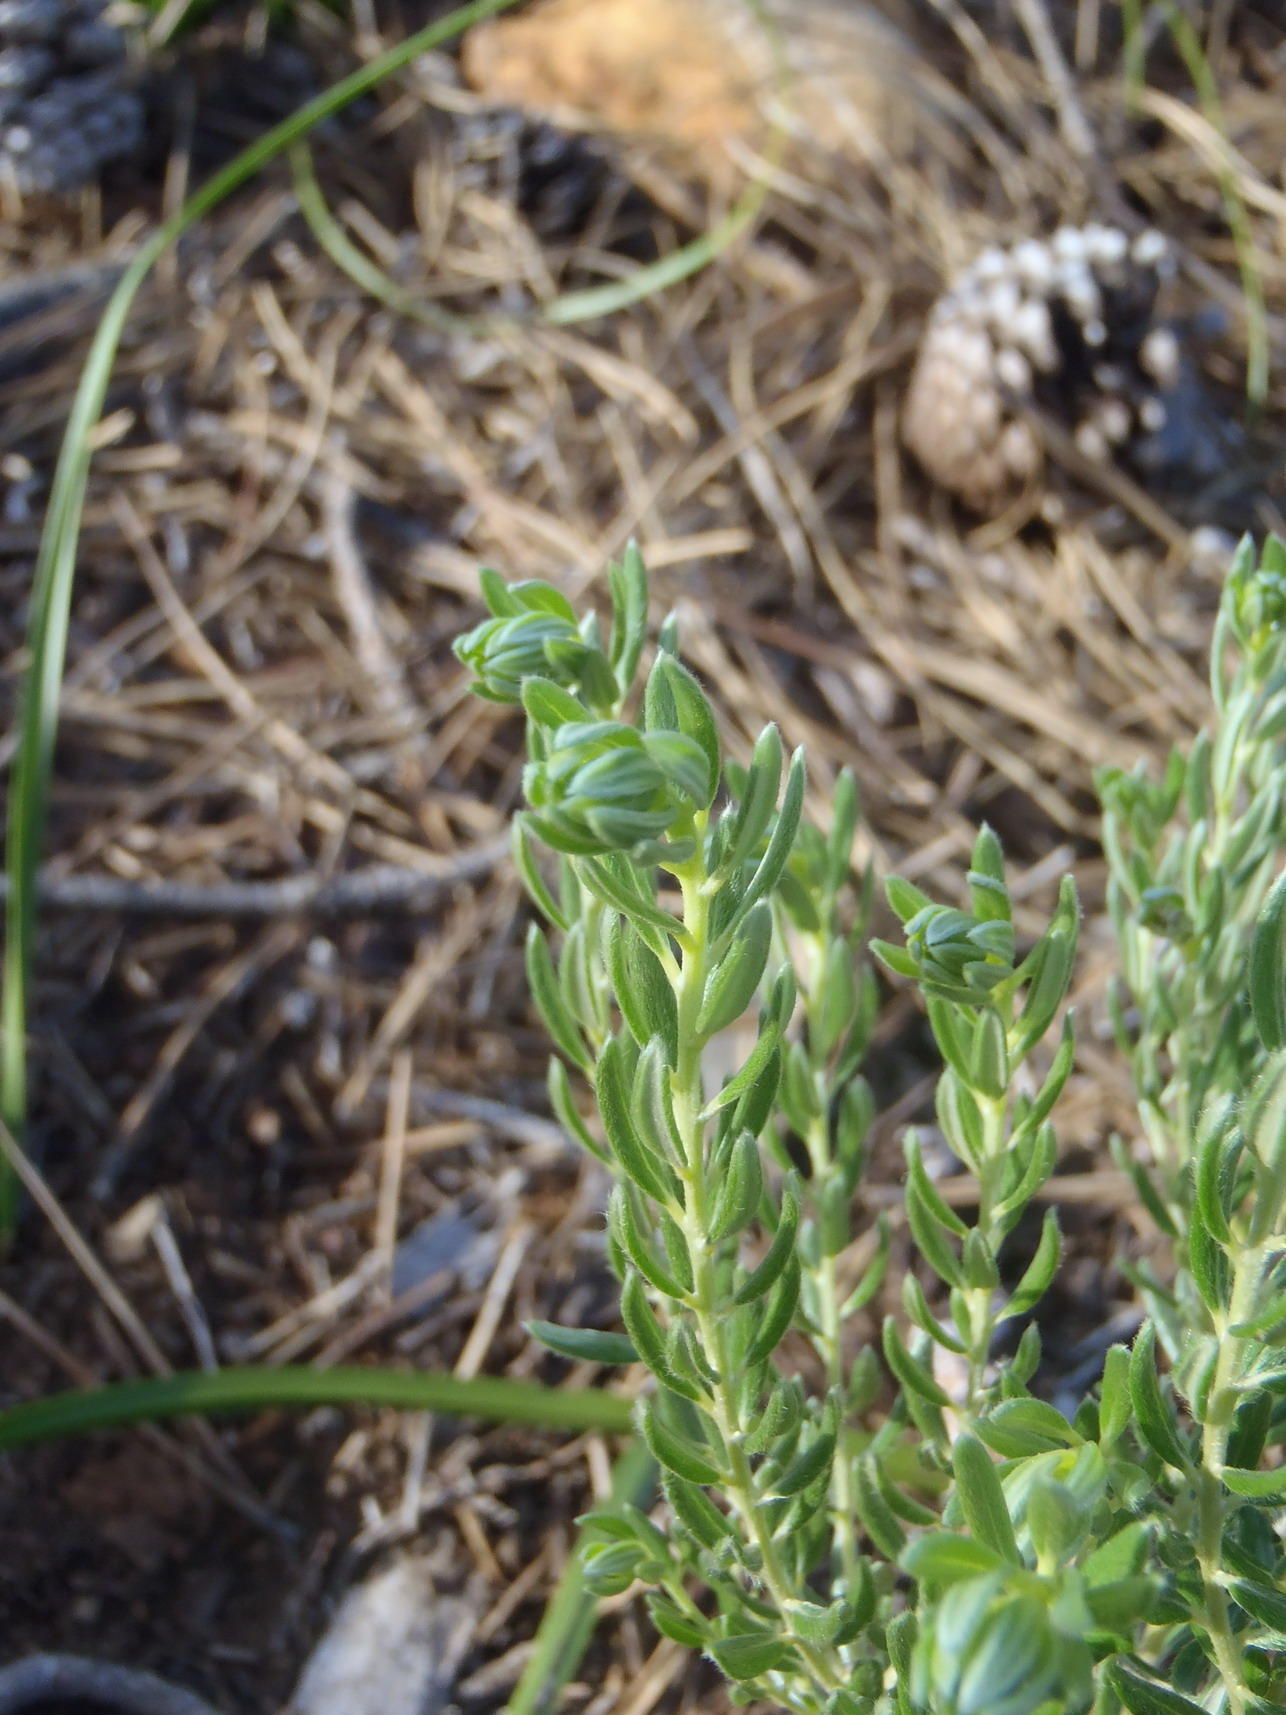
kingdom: Plantae
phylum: Tracheophyta
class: Magnoliopsida
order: Fabales
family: Fabaceae
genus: Xiphotheca
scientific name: Xiphotheca phylicoides
